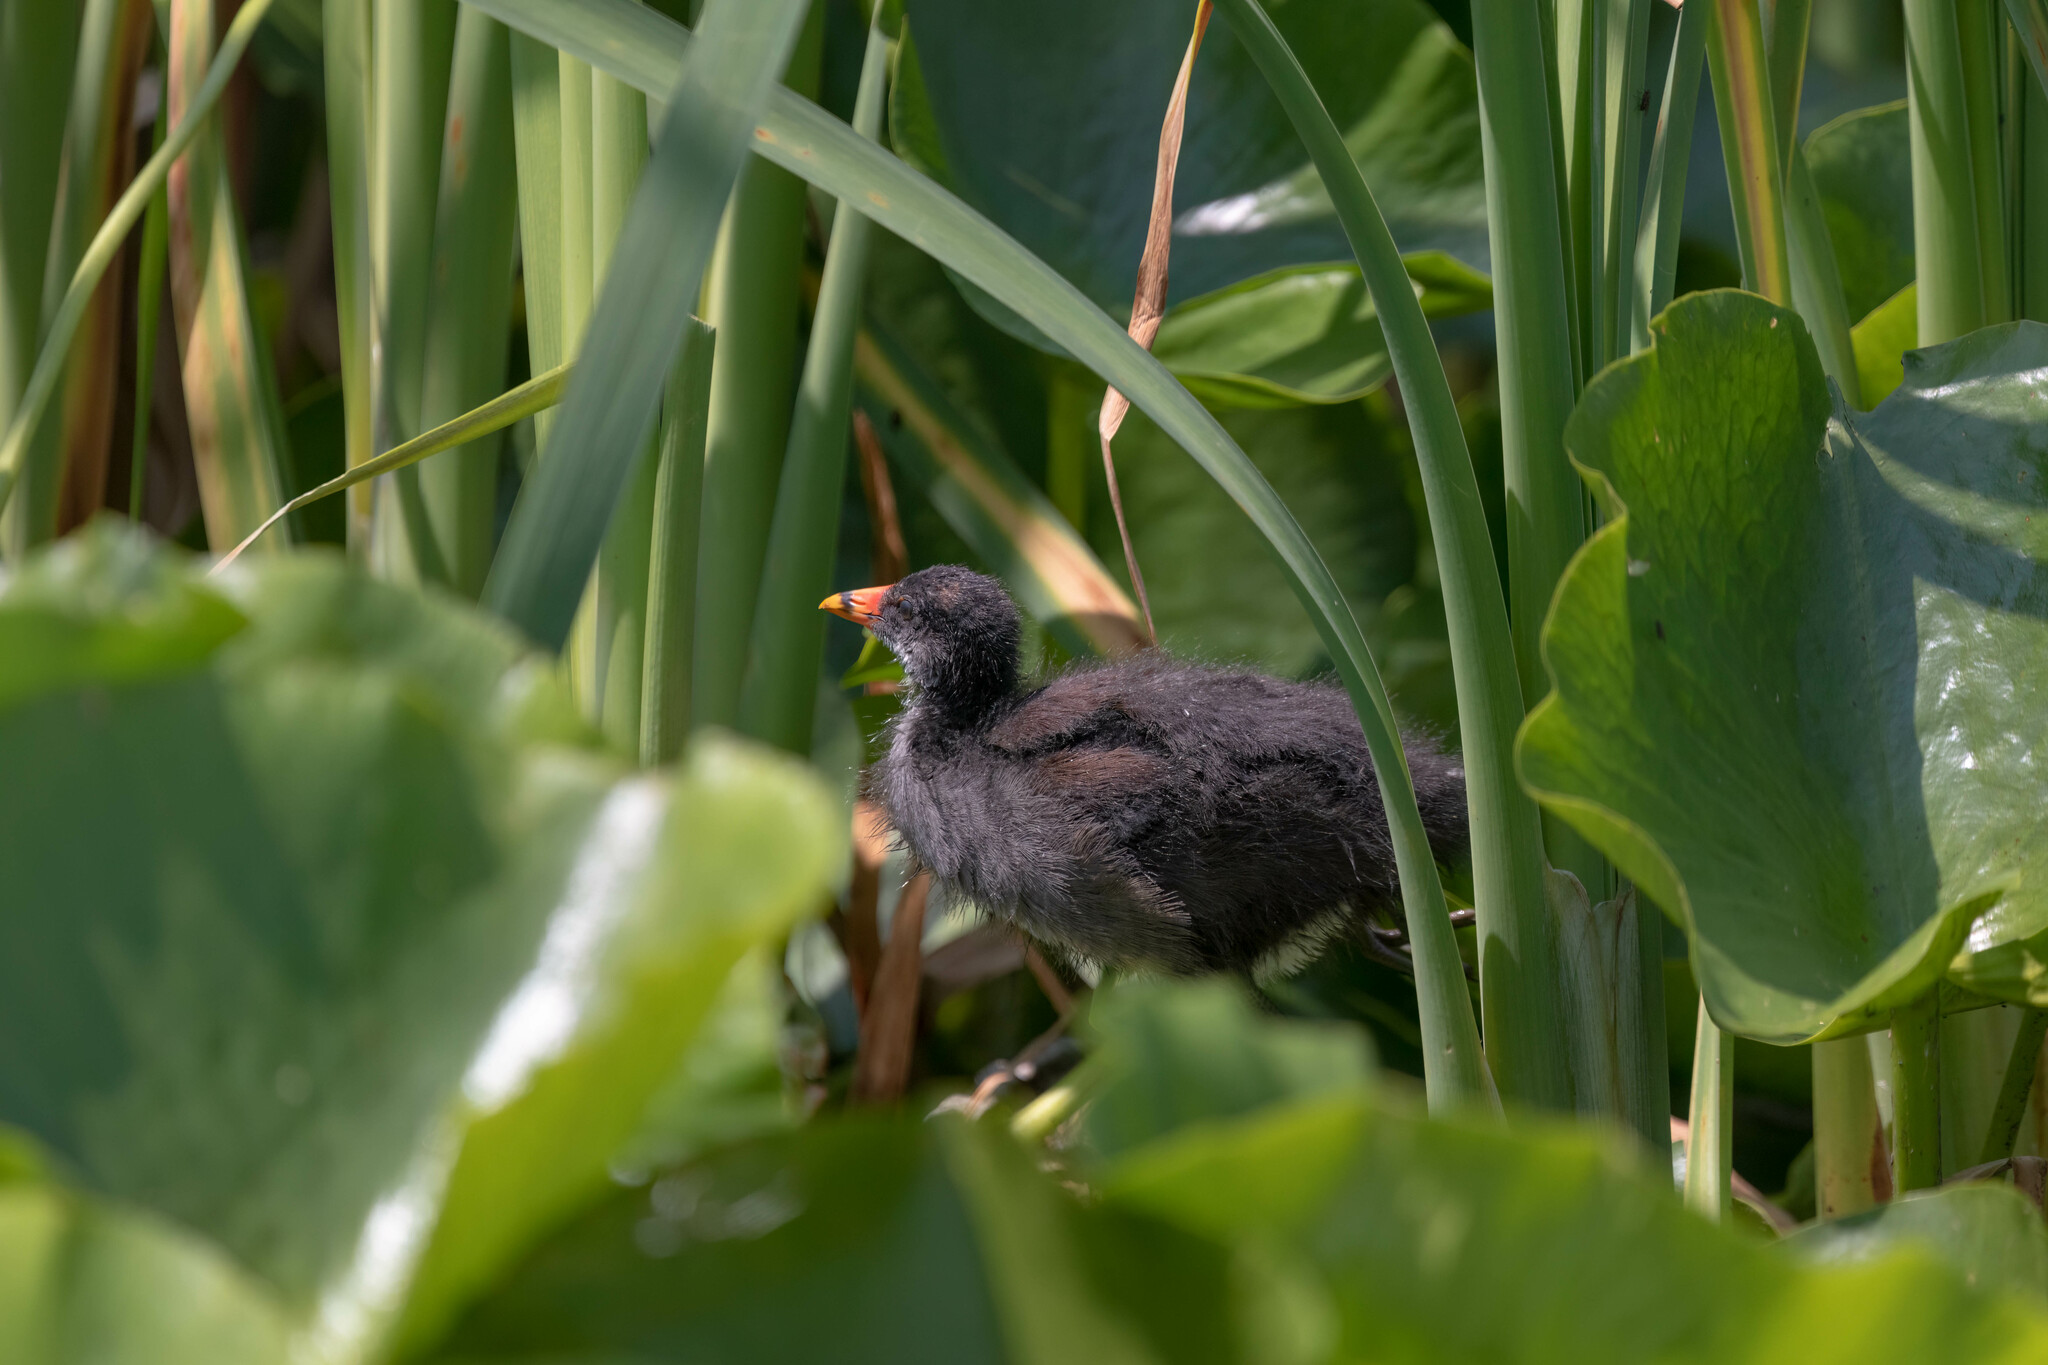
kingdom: Animalia
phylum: Chordata
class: Aves
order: Gruiformes
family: Rallidae
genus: Gallinula
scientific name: Gallinula chloropus
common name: Common moorhen
